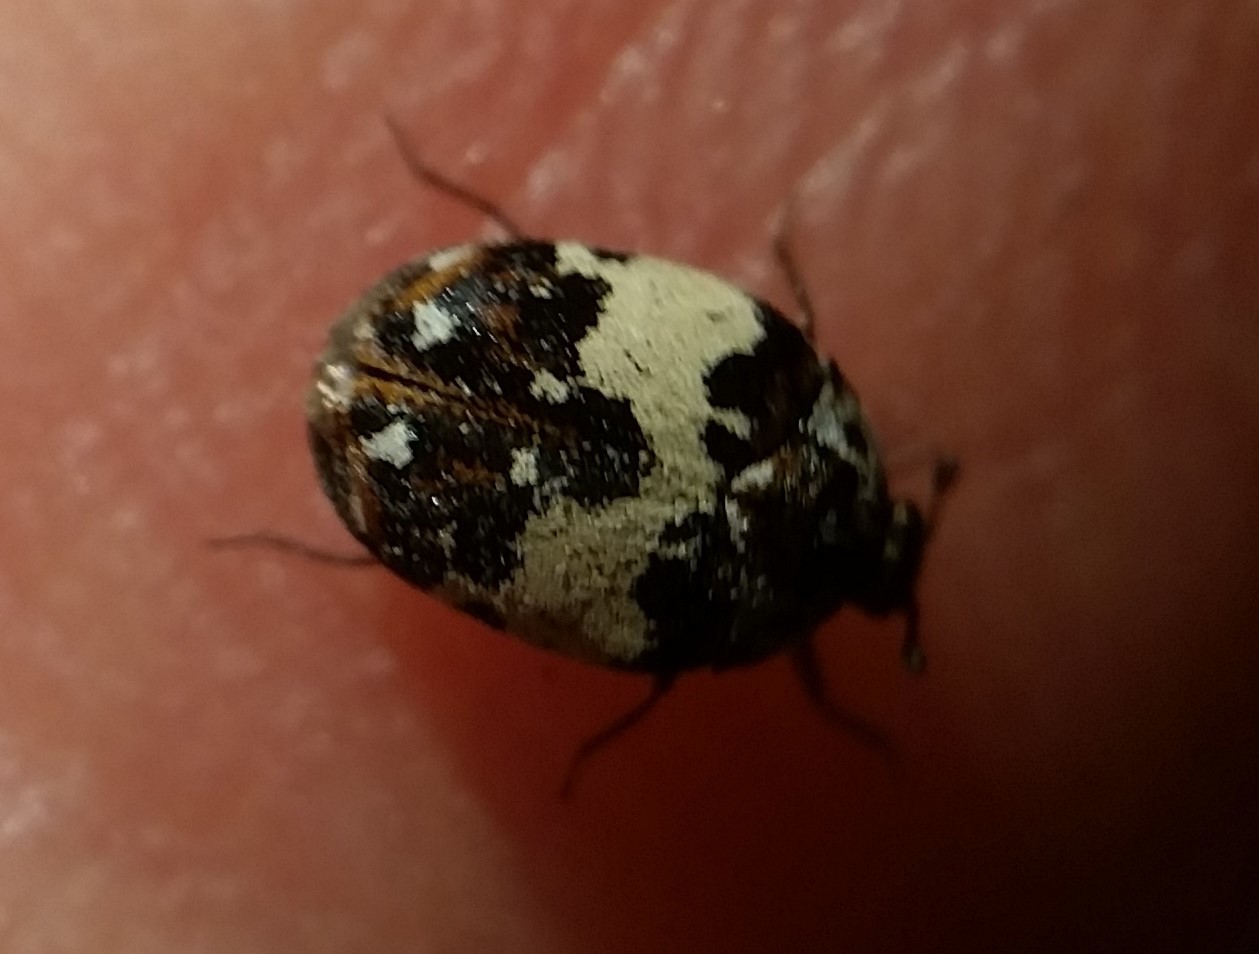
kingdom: Animalia
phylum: Arthropoda
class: Insecta
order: Coleoptera
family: Dermestidae
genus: Anthrenus
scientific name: Anthrenus isabellinus
